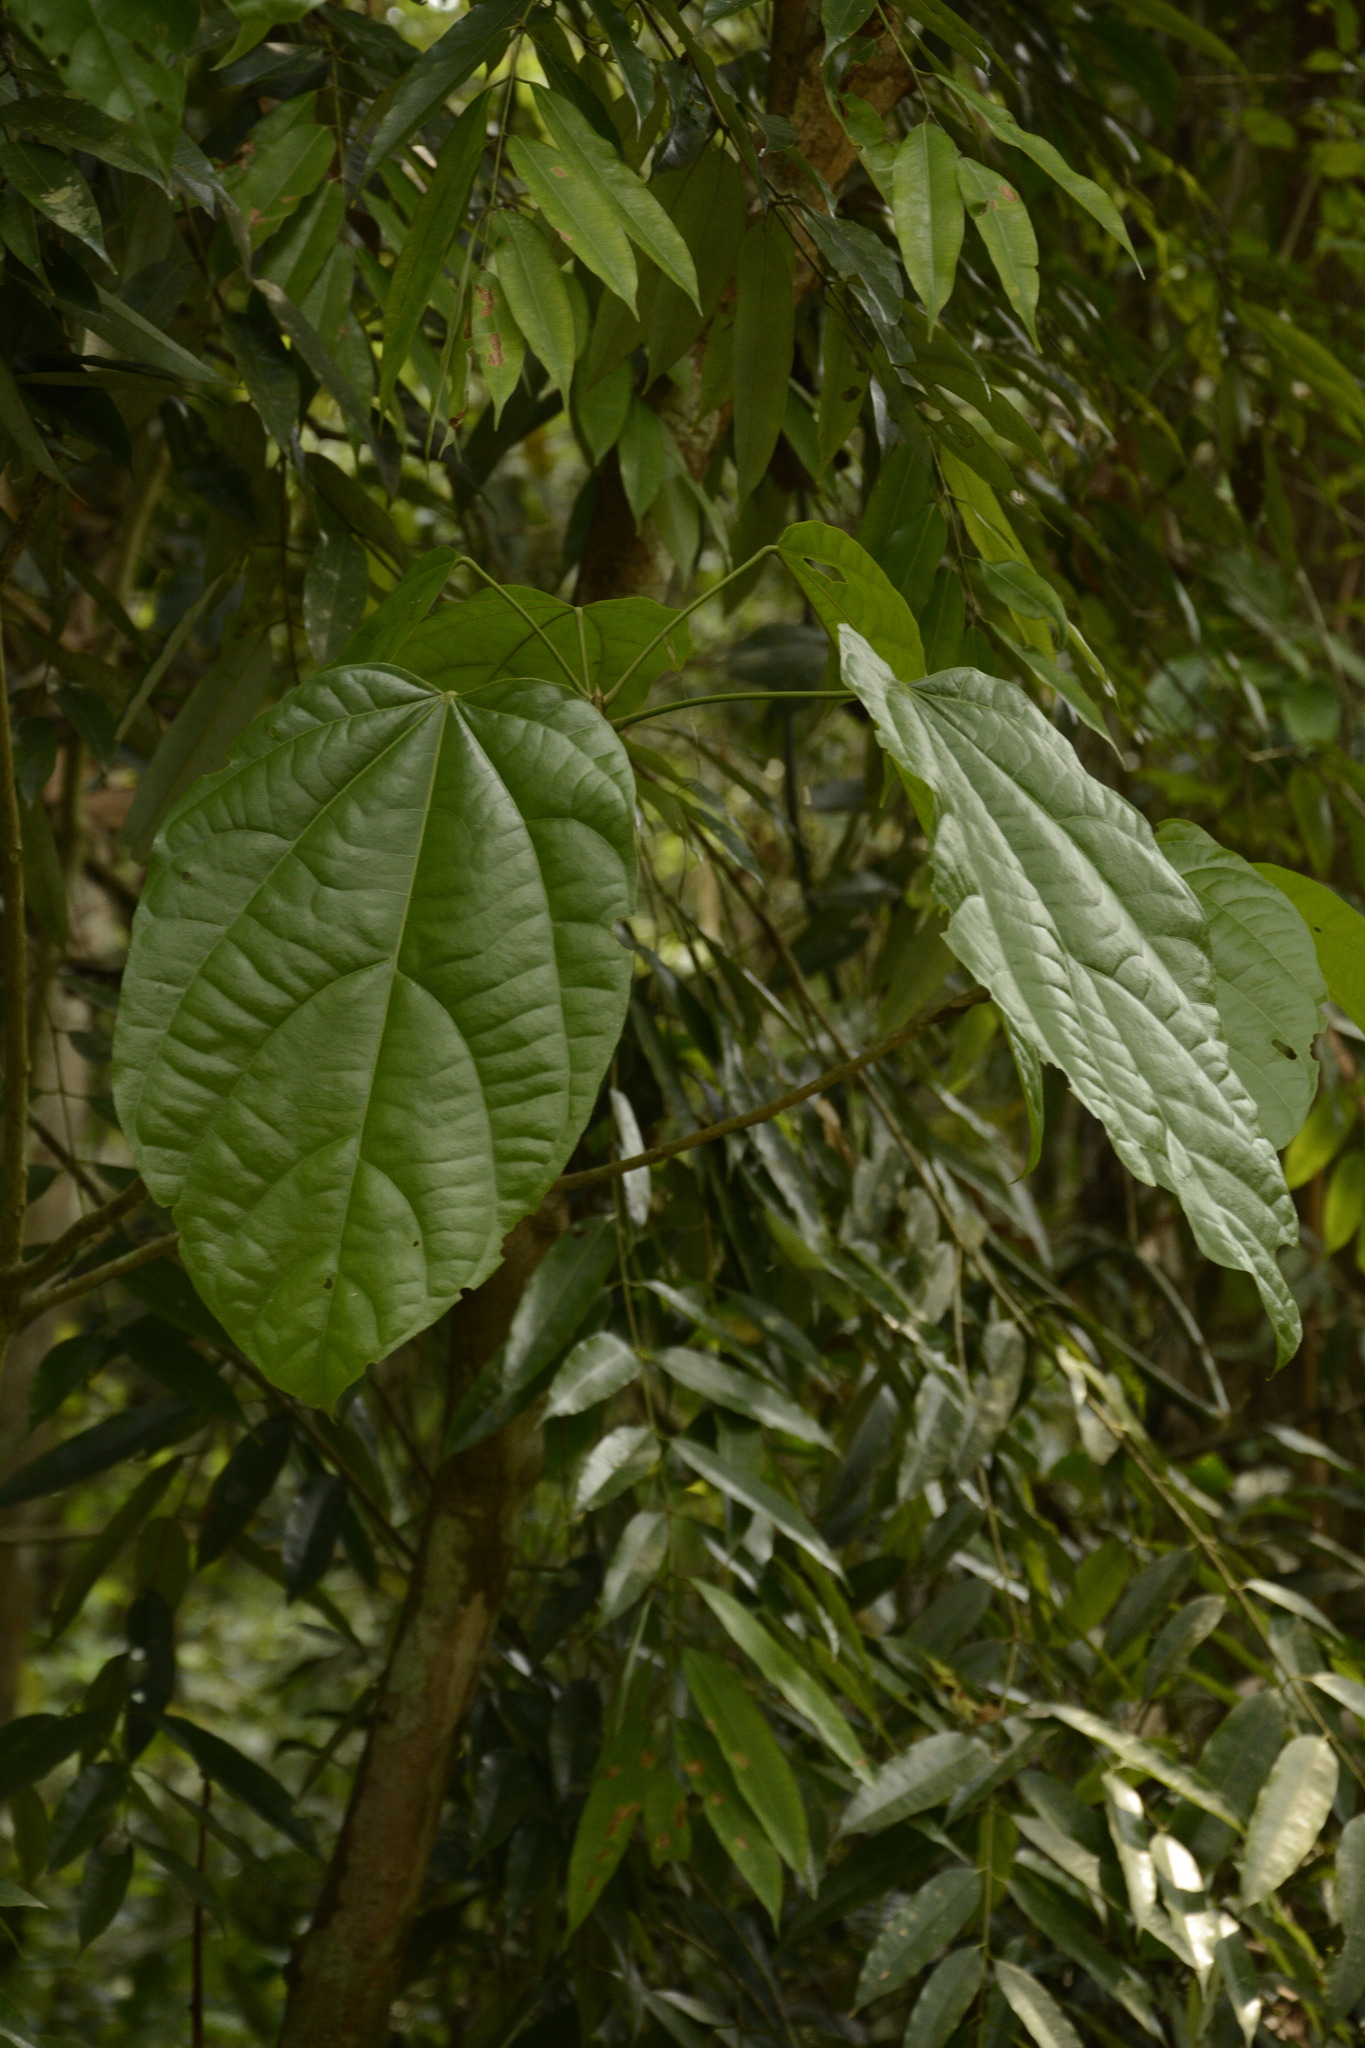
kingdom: Plantae
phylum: Tracheophyta
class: Magnoliopsida
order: Malvales
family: Malvaceae
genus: Pterygota
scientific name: Pterygota alata
